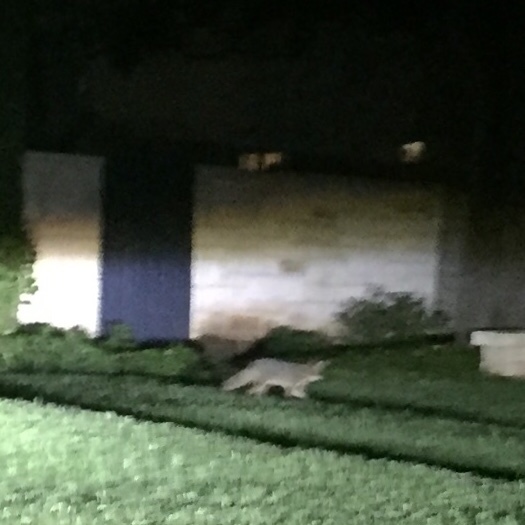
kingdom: Animalia
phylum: Chordata
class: Mammalia
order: Carnivora
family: Canidae
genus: Urocyon
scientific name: Urocyon cinereoargenteus
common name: Gray fox
